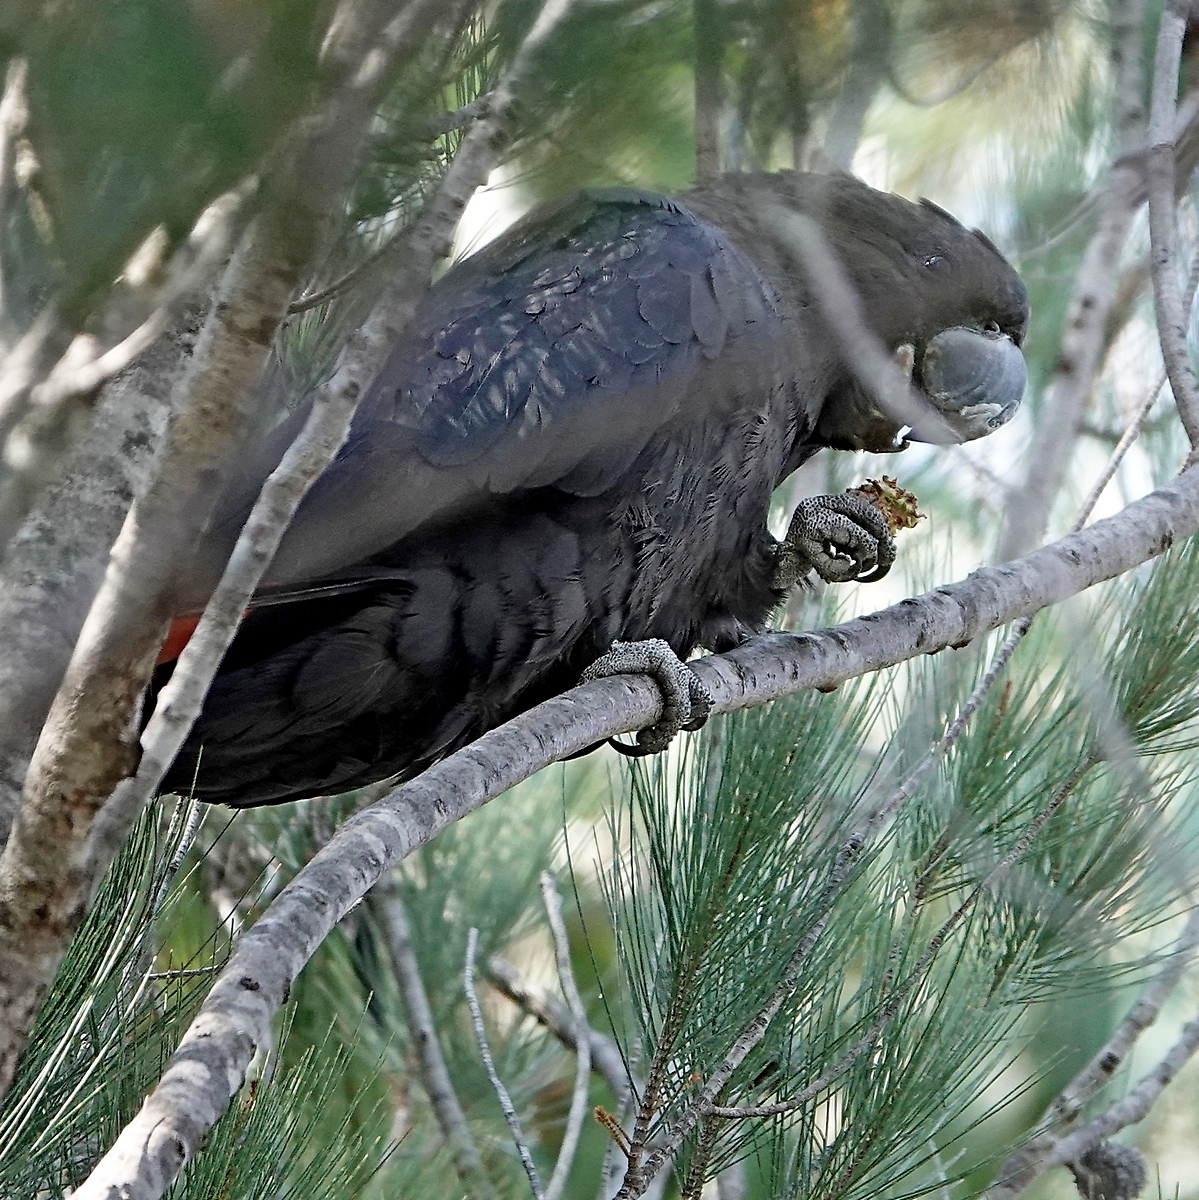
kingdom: Animalia
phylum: Chordata
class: Aves
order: Psittaciformes
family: Psittacidae
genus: Calyptorhynchus
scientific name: Calyptorhynchus lathami
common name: Glossy black cockatoo
